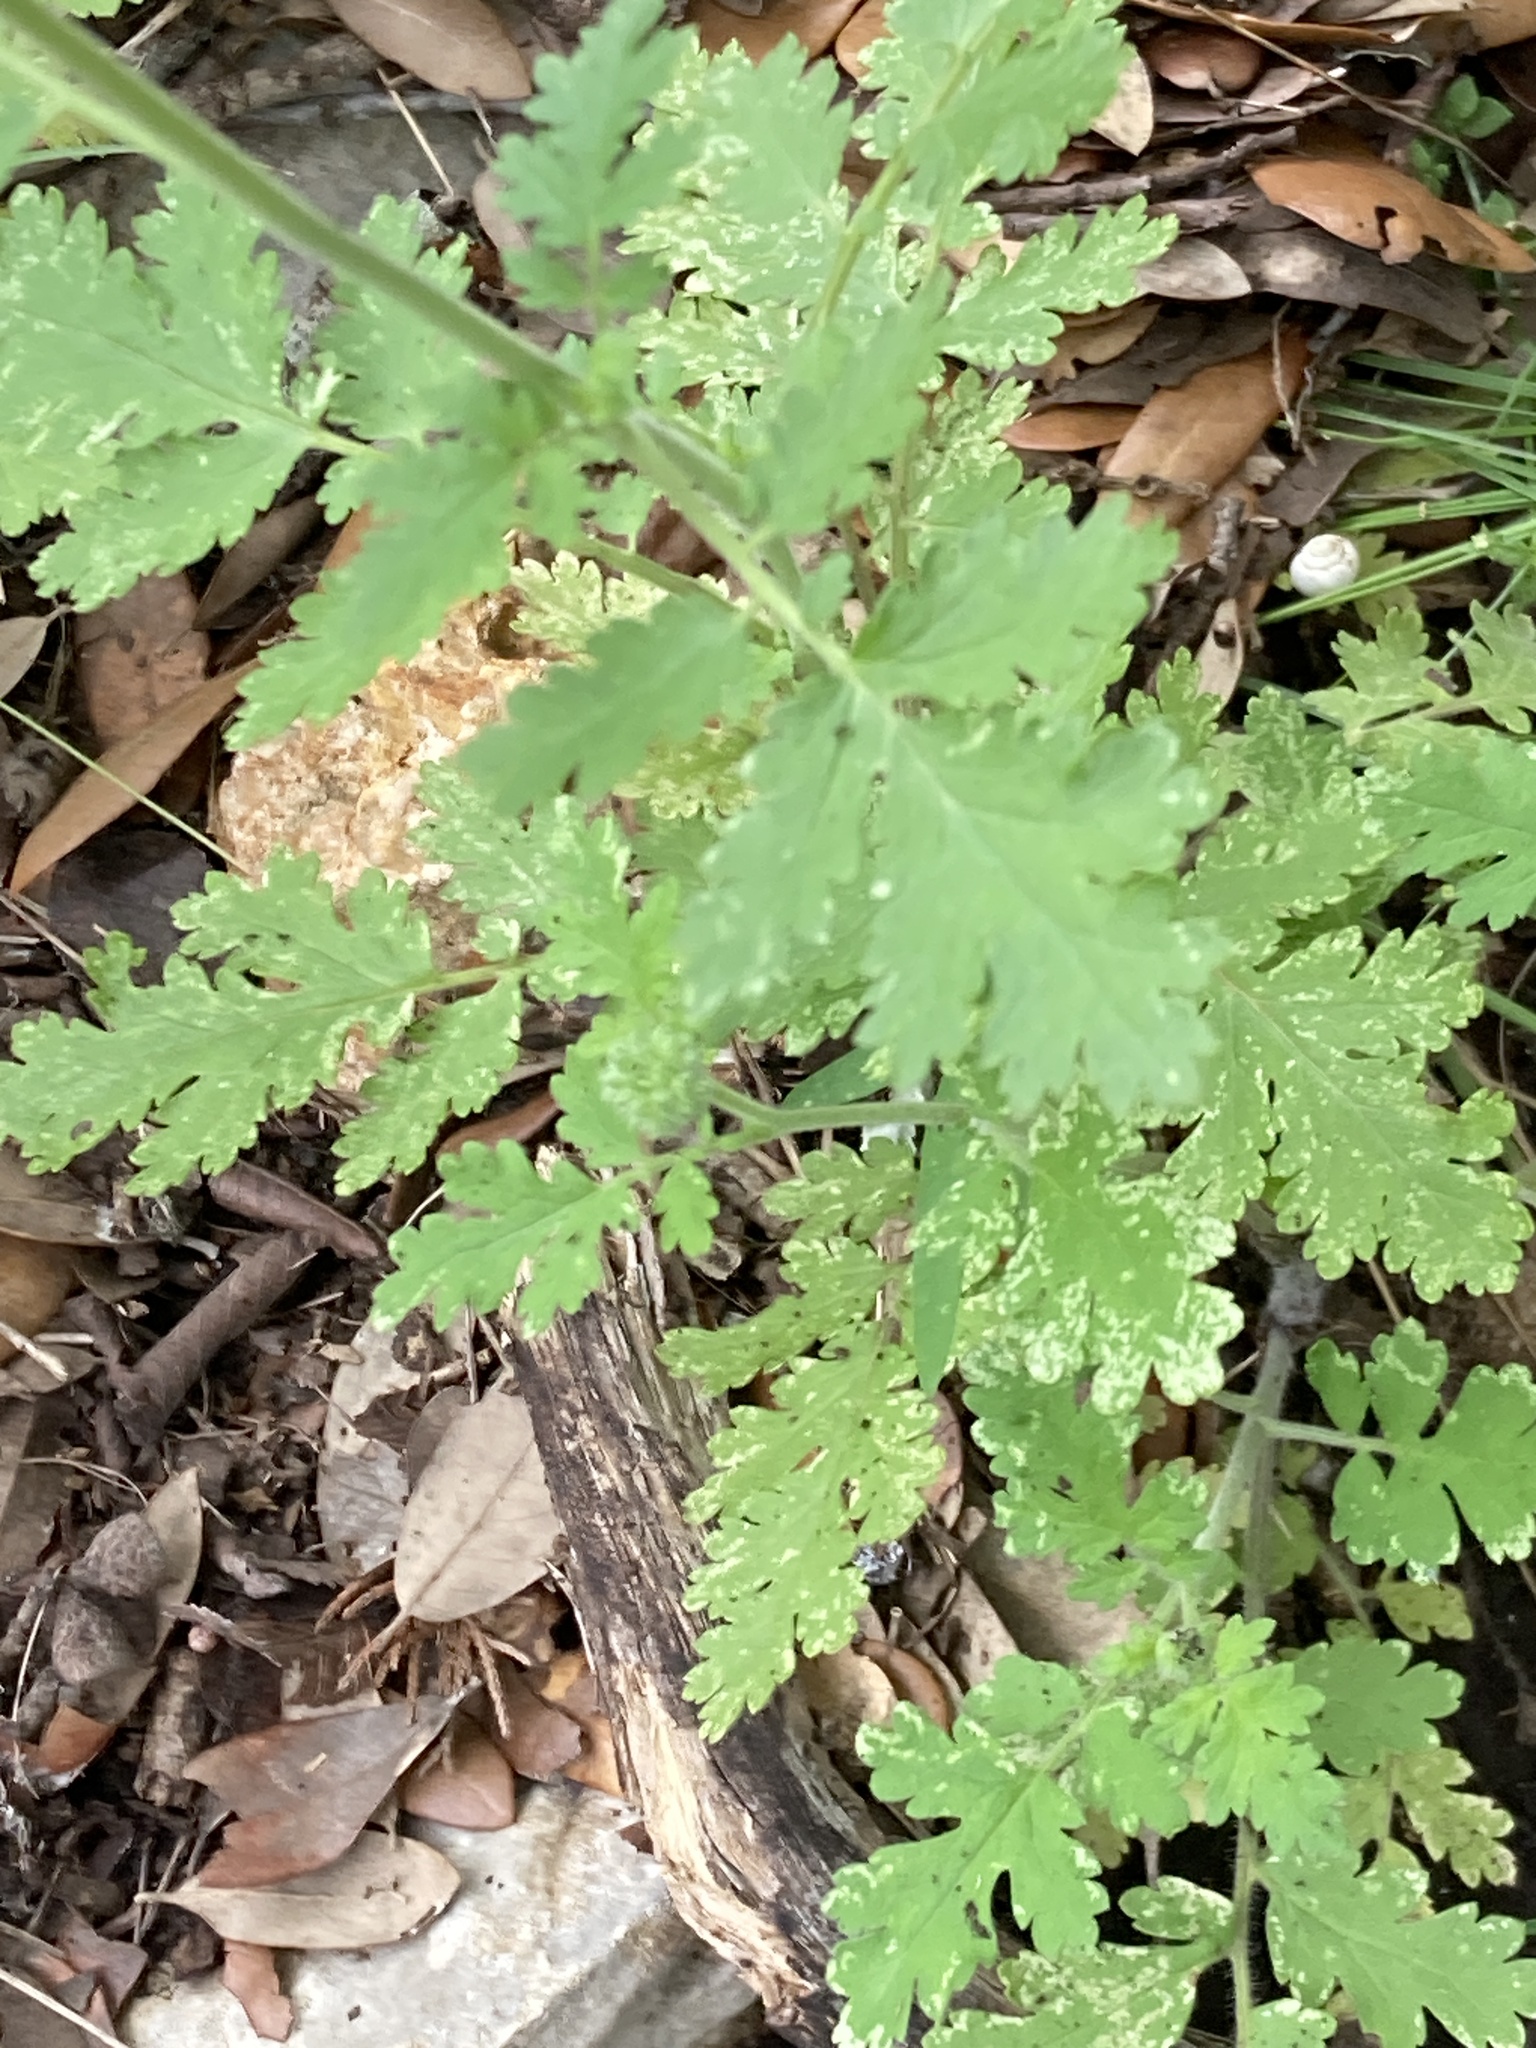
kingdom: Plantae
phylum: Tracheophyta
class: Magnoliopsida
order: Boraginales
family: Hydrophyllaceae
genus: Phacelia
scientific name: Phacelia congesta
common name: Blue curls
